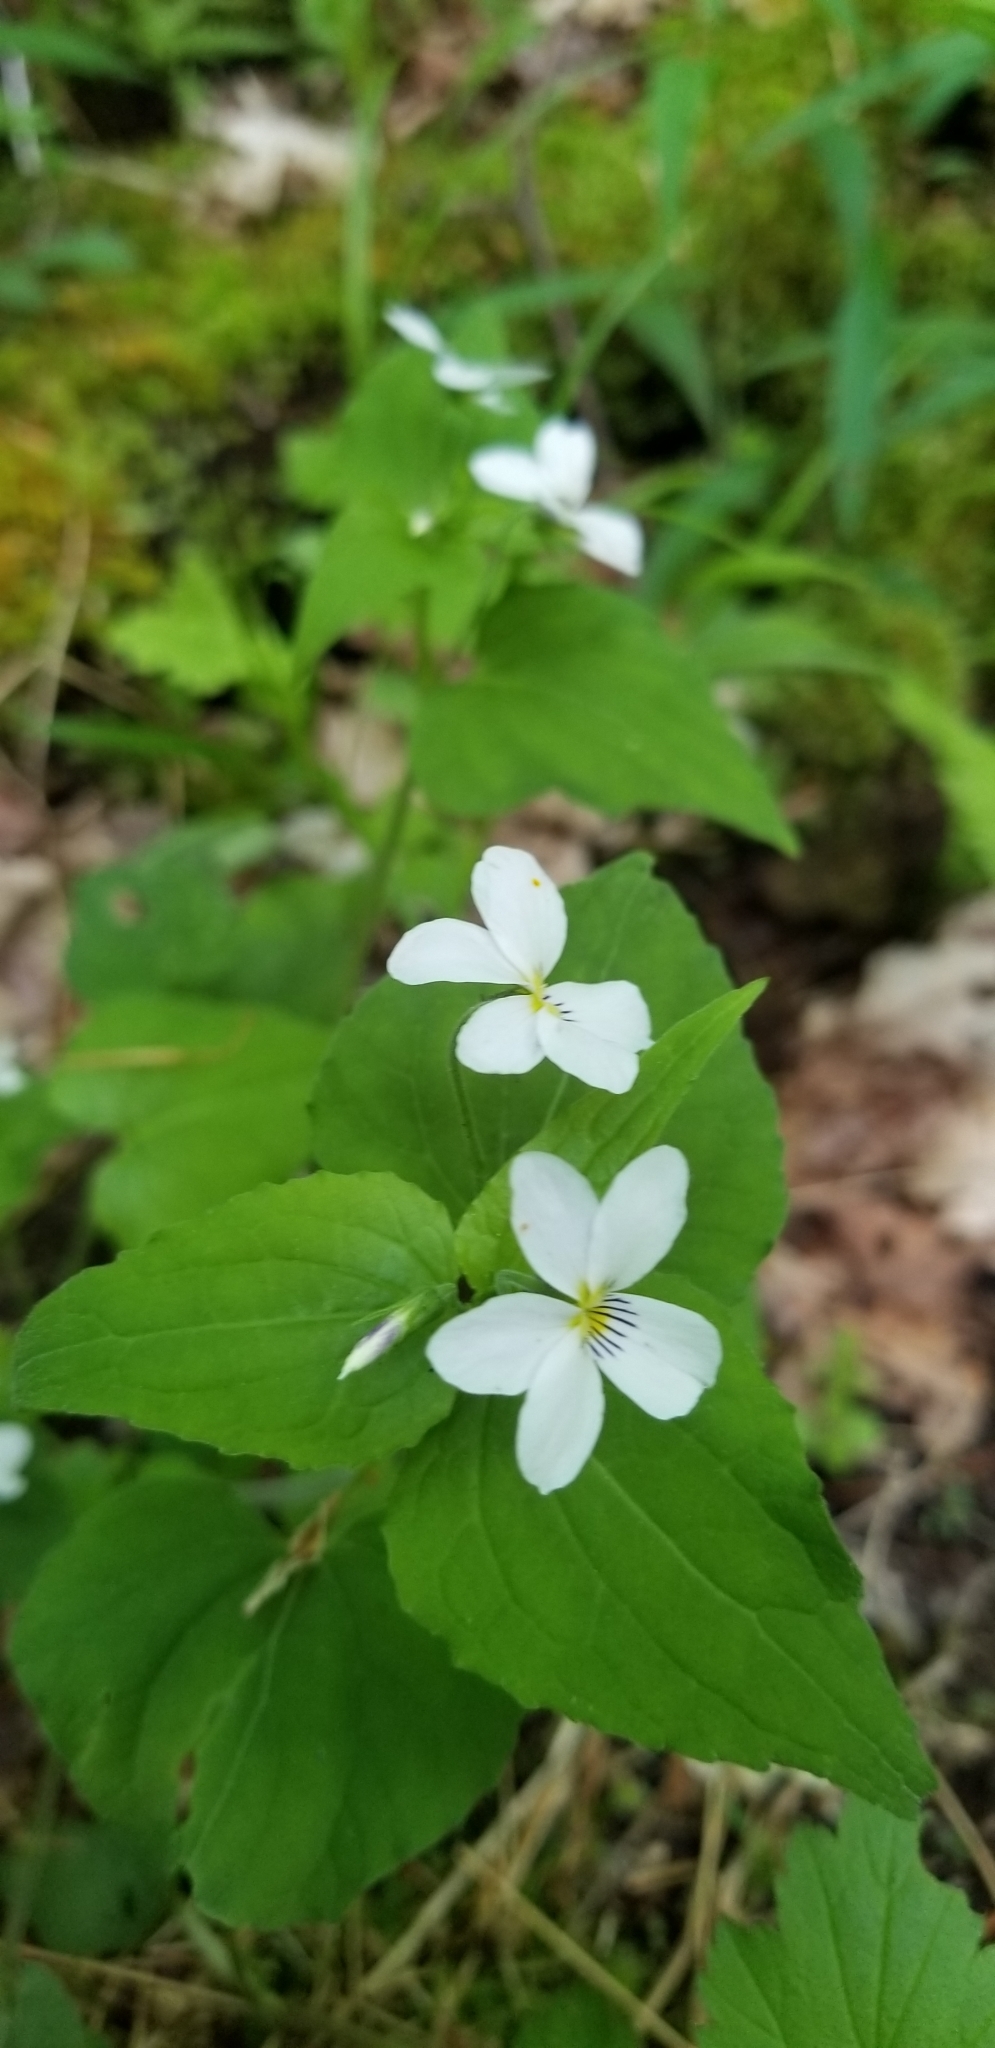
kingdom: Plantae
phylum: Tracheophyta
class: Magnoliopsida
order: Malpighiales
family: Violaceae
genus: Viola
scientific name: Viola canadensis
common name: Canada violet
